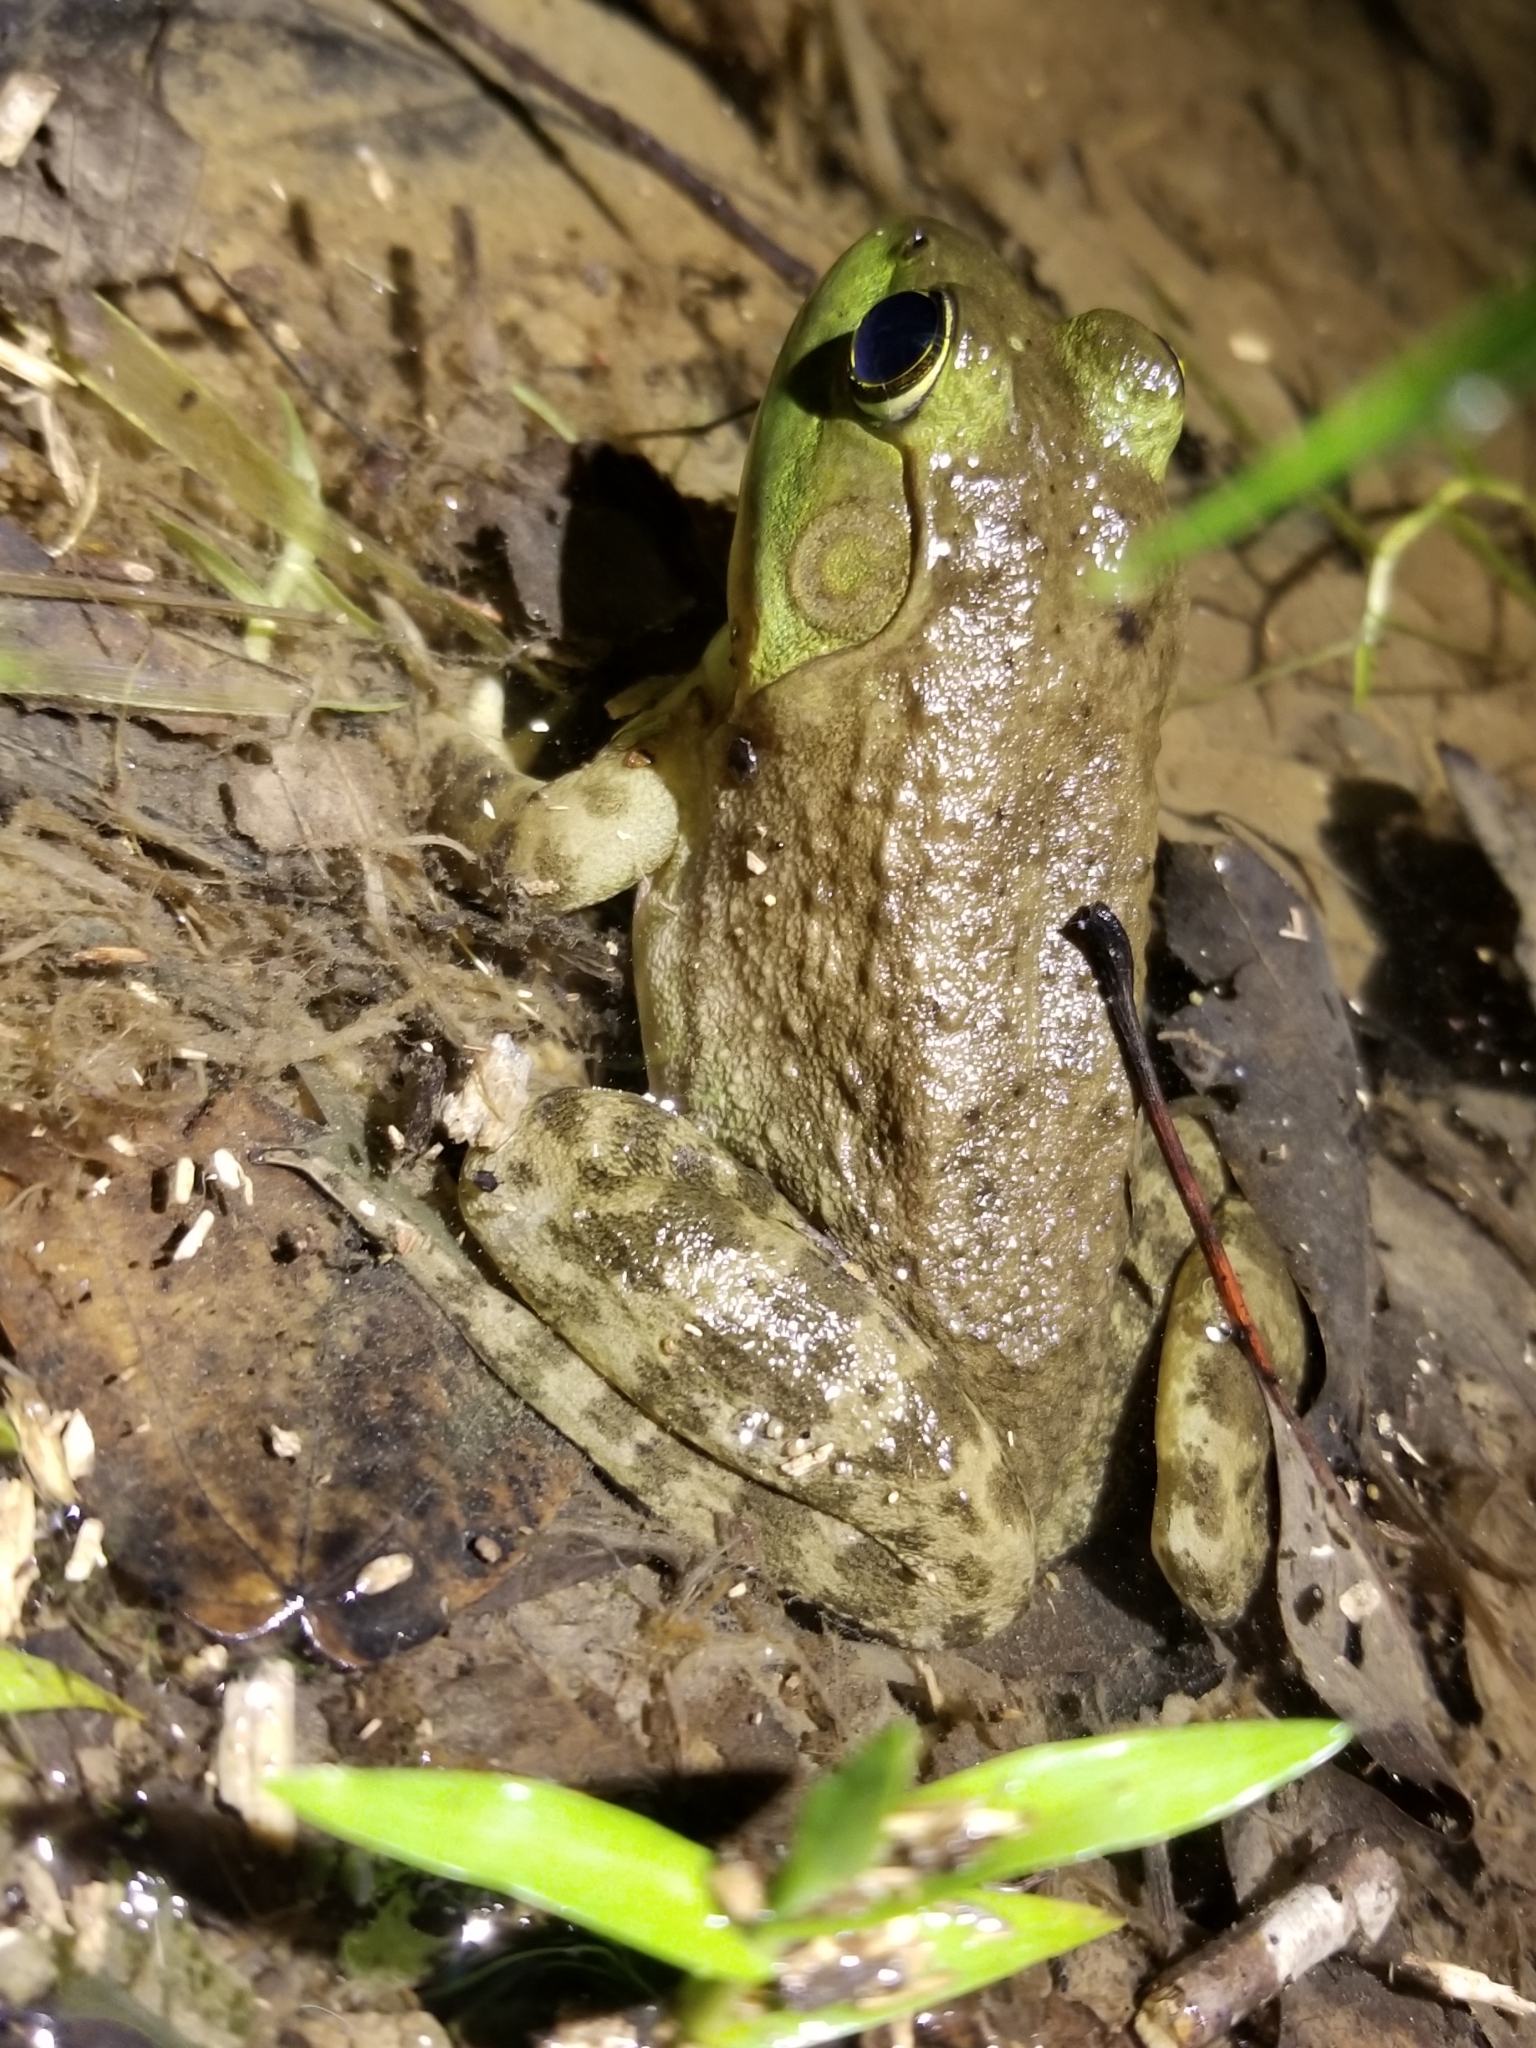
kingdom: Animalia
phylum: Chordata
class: Amphibia
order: Anura
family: Ranidae
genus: Lithobates
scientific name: Lithobates catesbeianus
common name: American bullfrog
